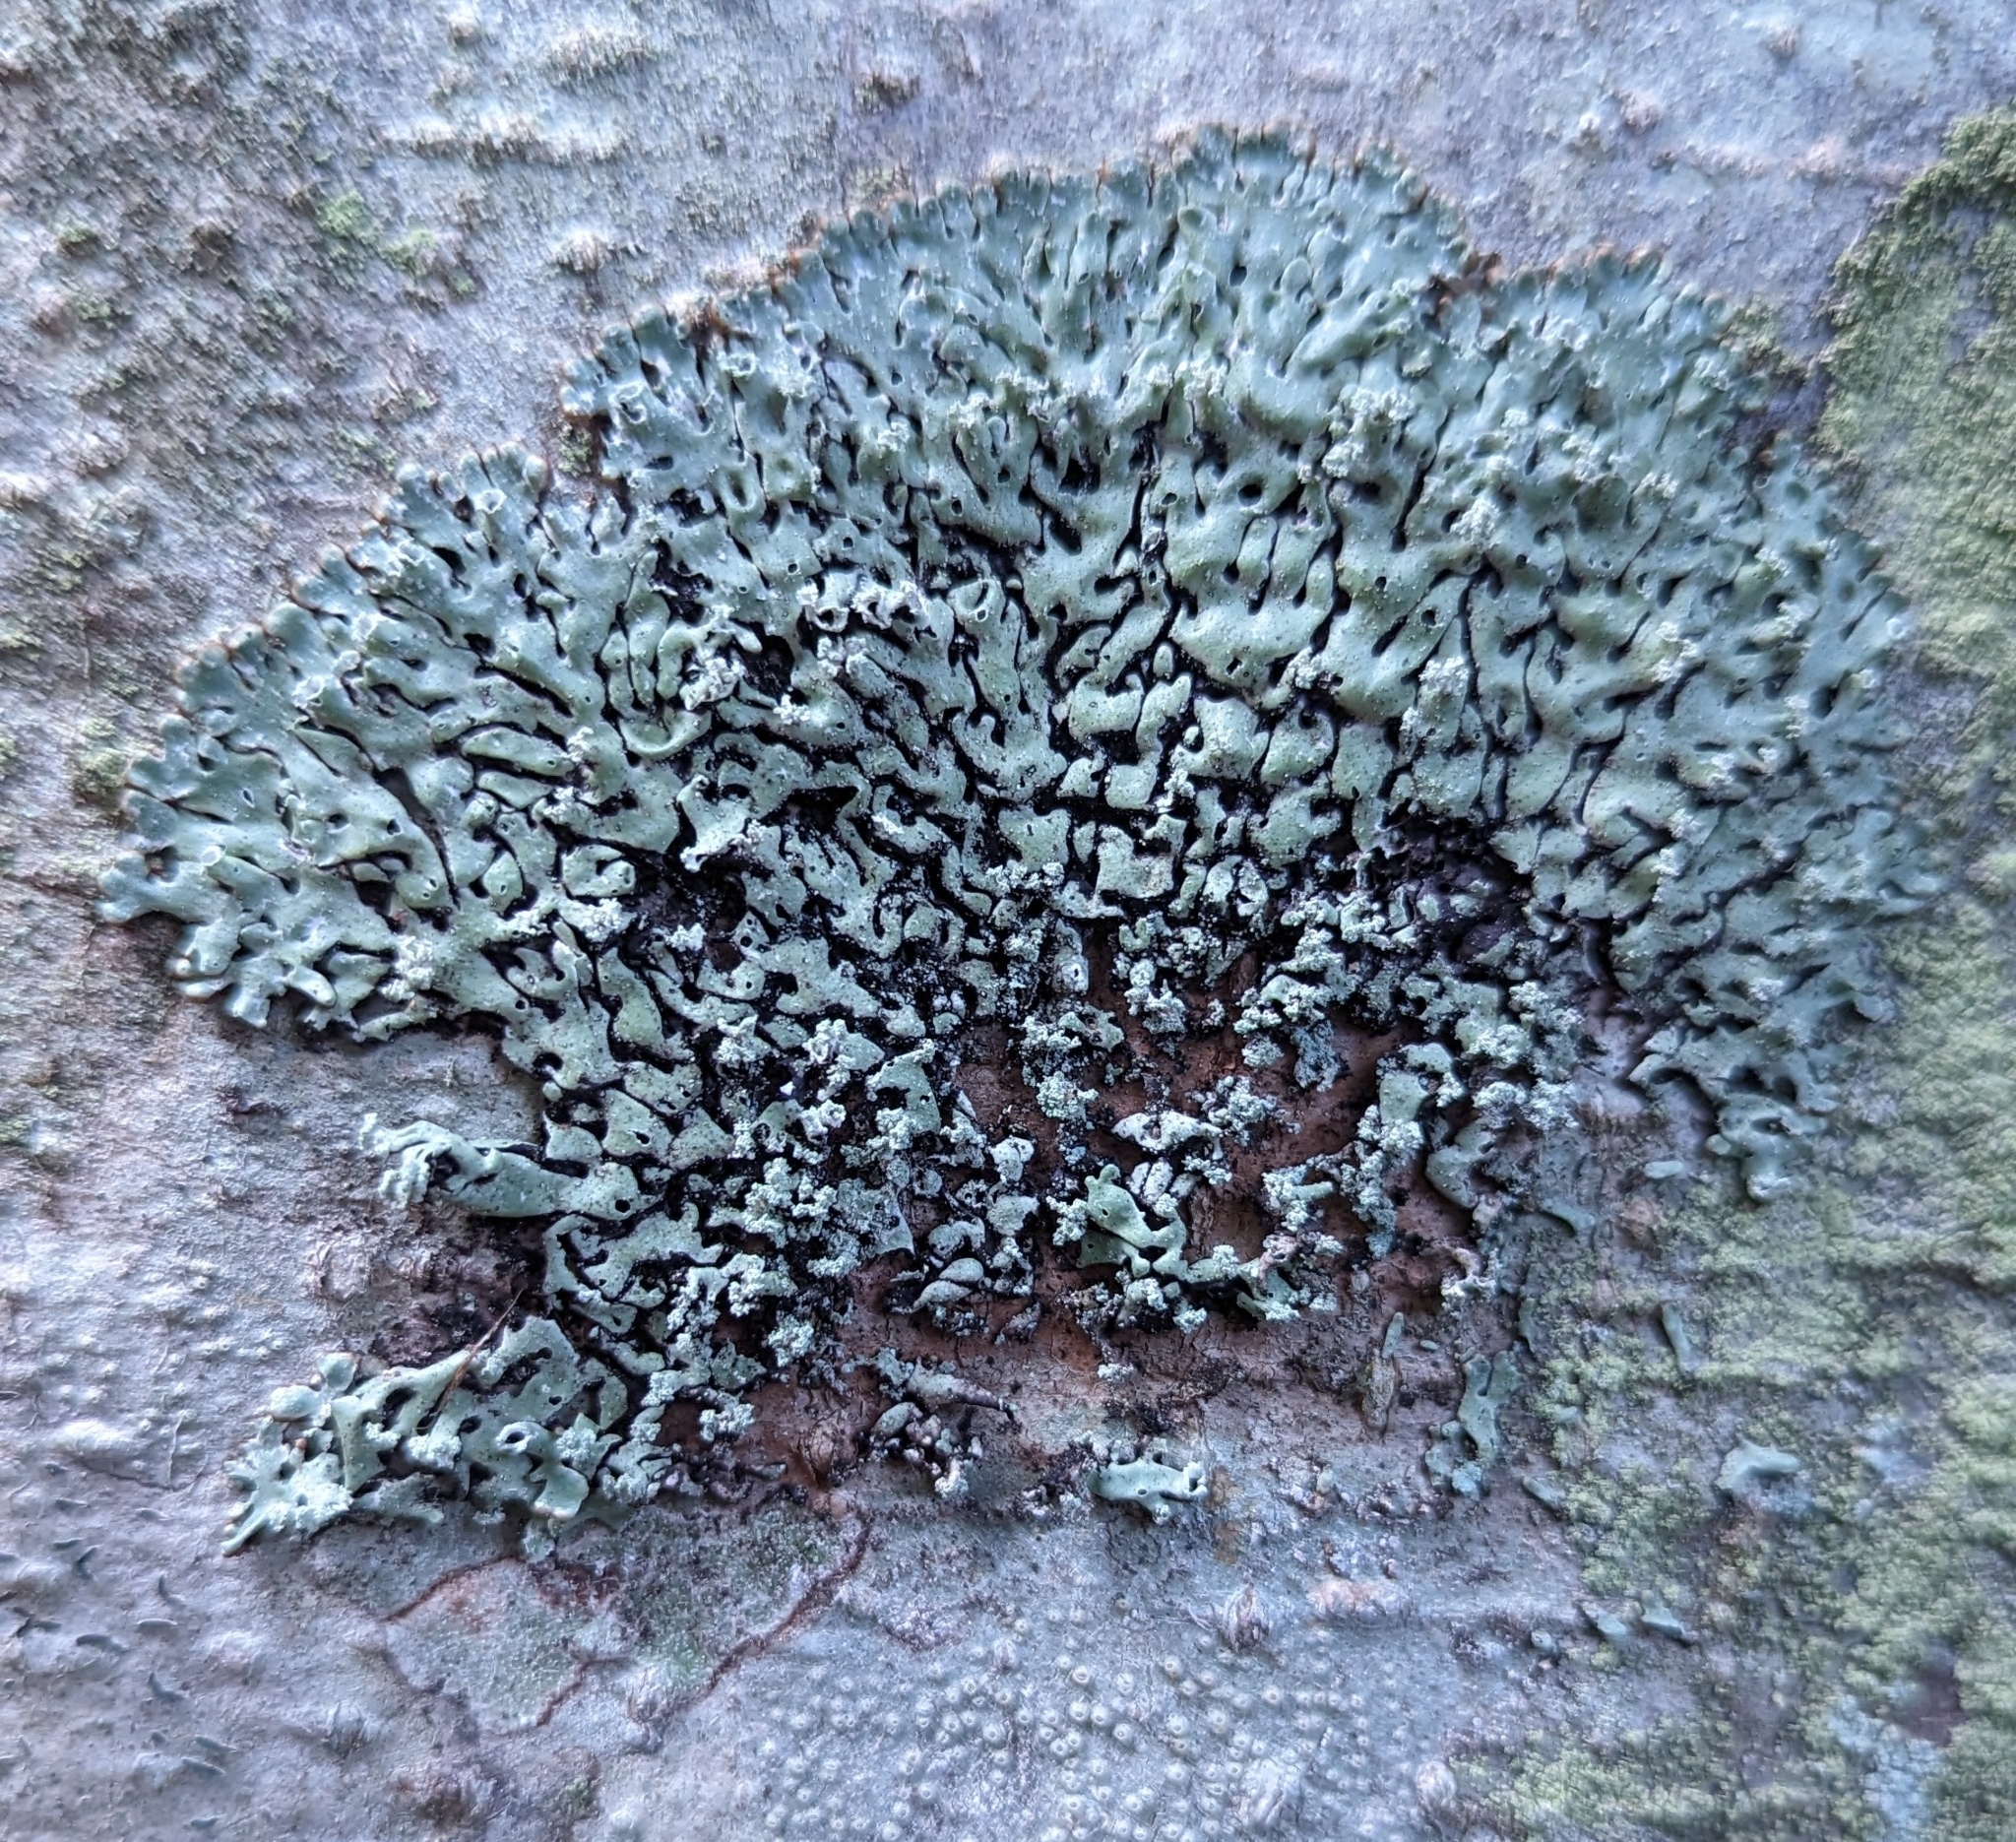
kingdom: Fungi
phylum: Ascomycota
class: Lecanoromycetes
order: Lecanorales
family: Parmeliaceae
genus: Menegazzia
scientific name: Menegazzia subsimilis
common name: Tree flute lichen
